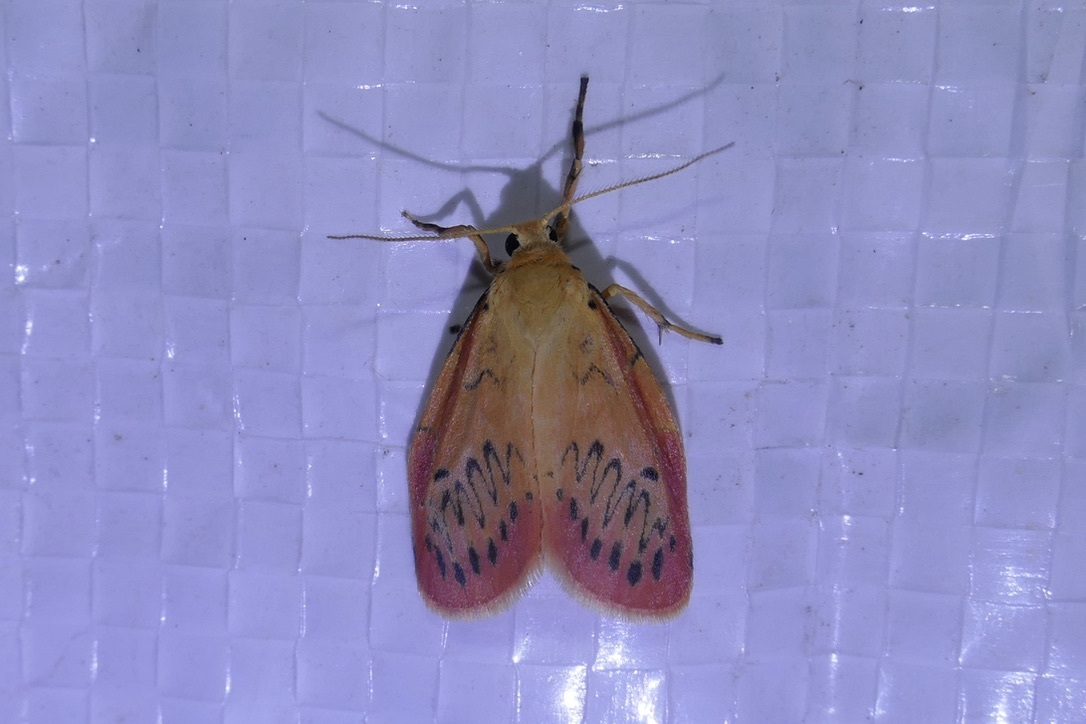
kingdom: Animalia
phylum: Arthropoda
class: Insecta
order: Lepidoptera
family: Erebidae
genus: Miltochrista
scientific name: Miltochrista miniata
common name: Rosy footman
